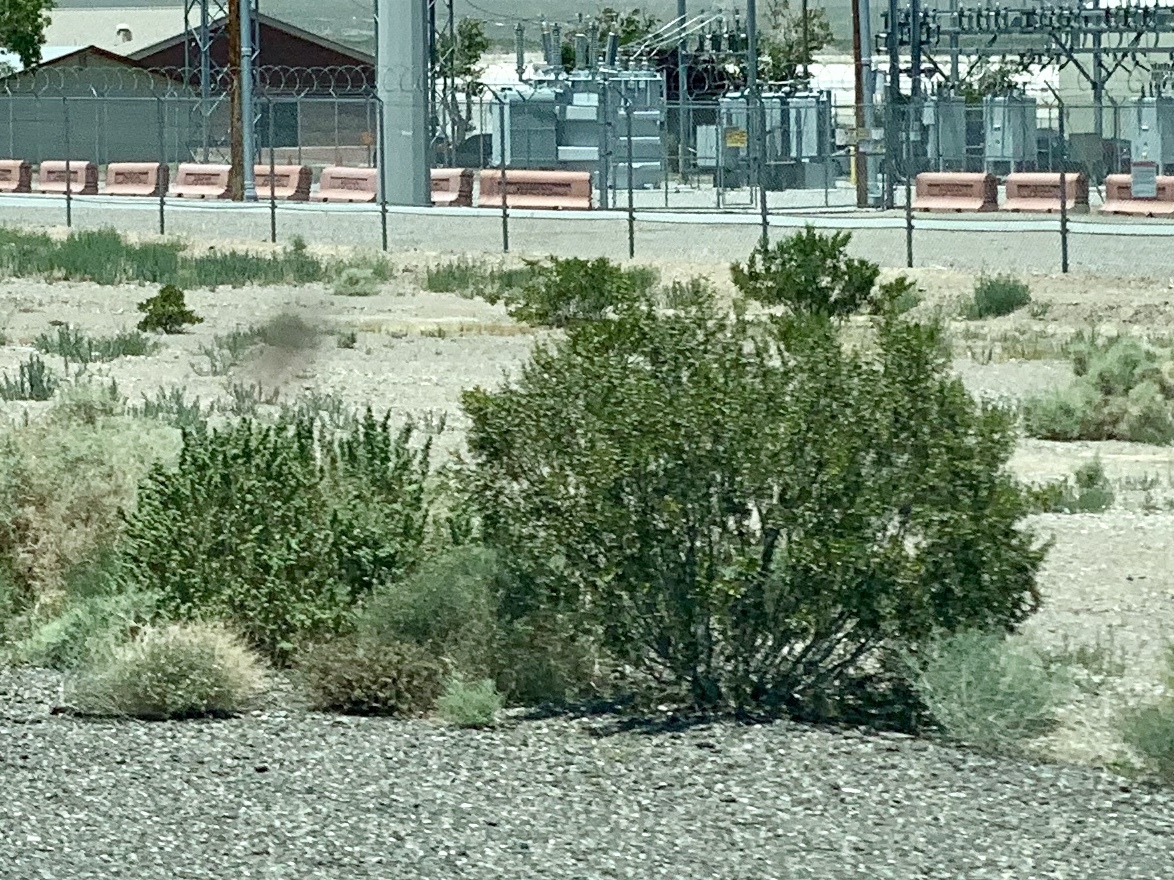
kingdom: Plantae
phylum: Tracheophyta
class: Magnoliopsida
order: Zygophyllales
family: Zygophyllaceae
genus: Larrea
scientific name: Larrea tridentata
